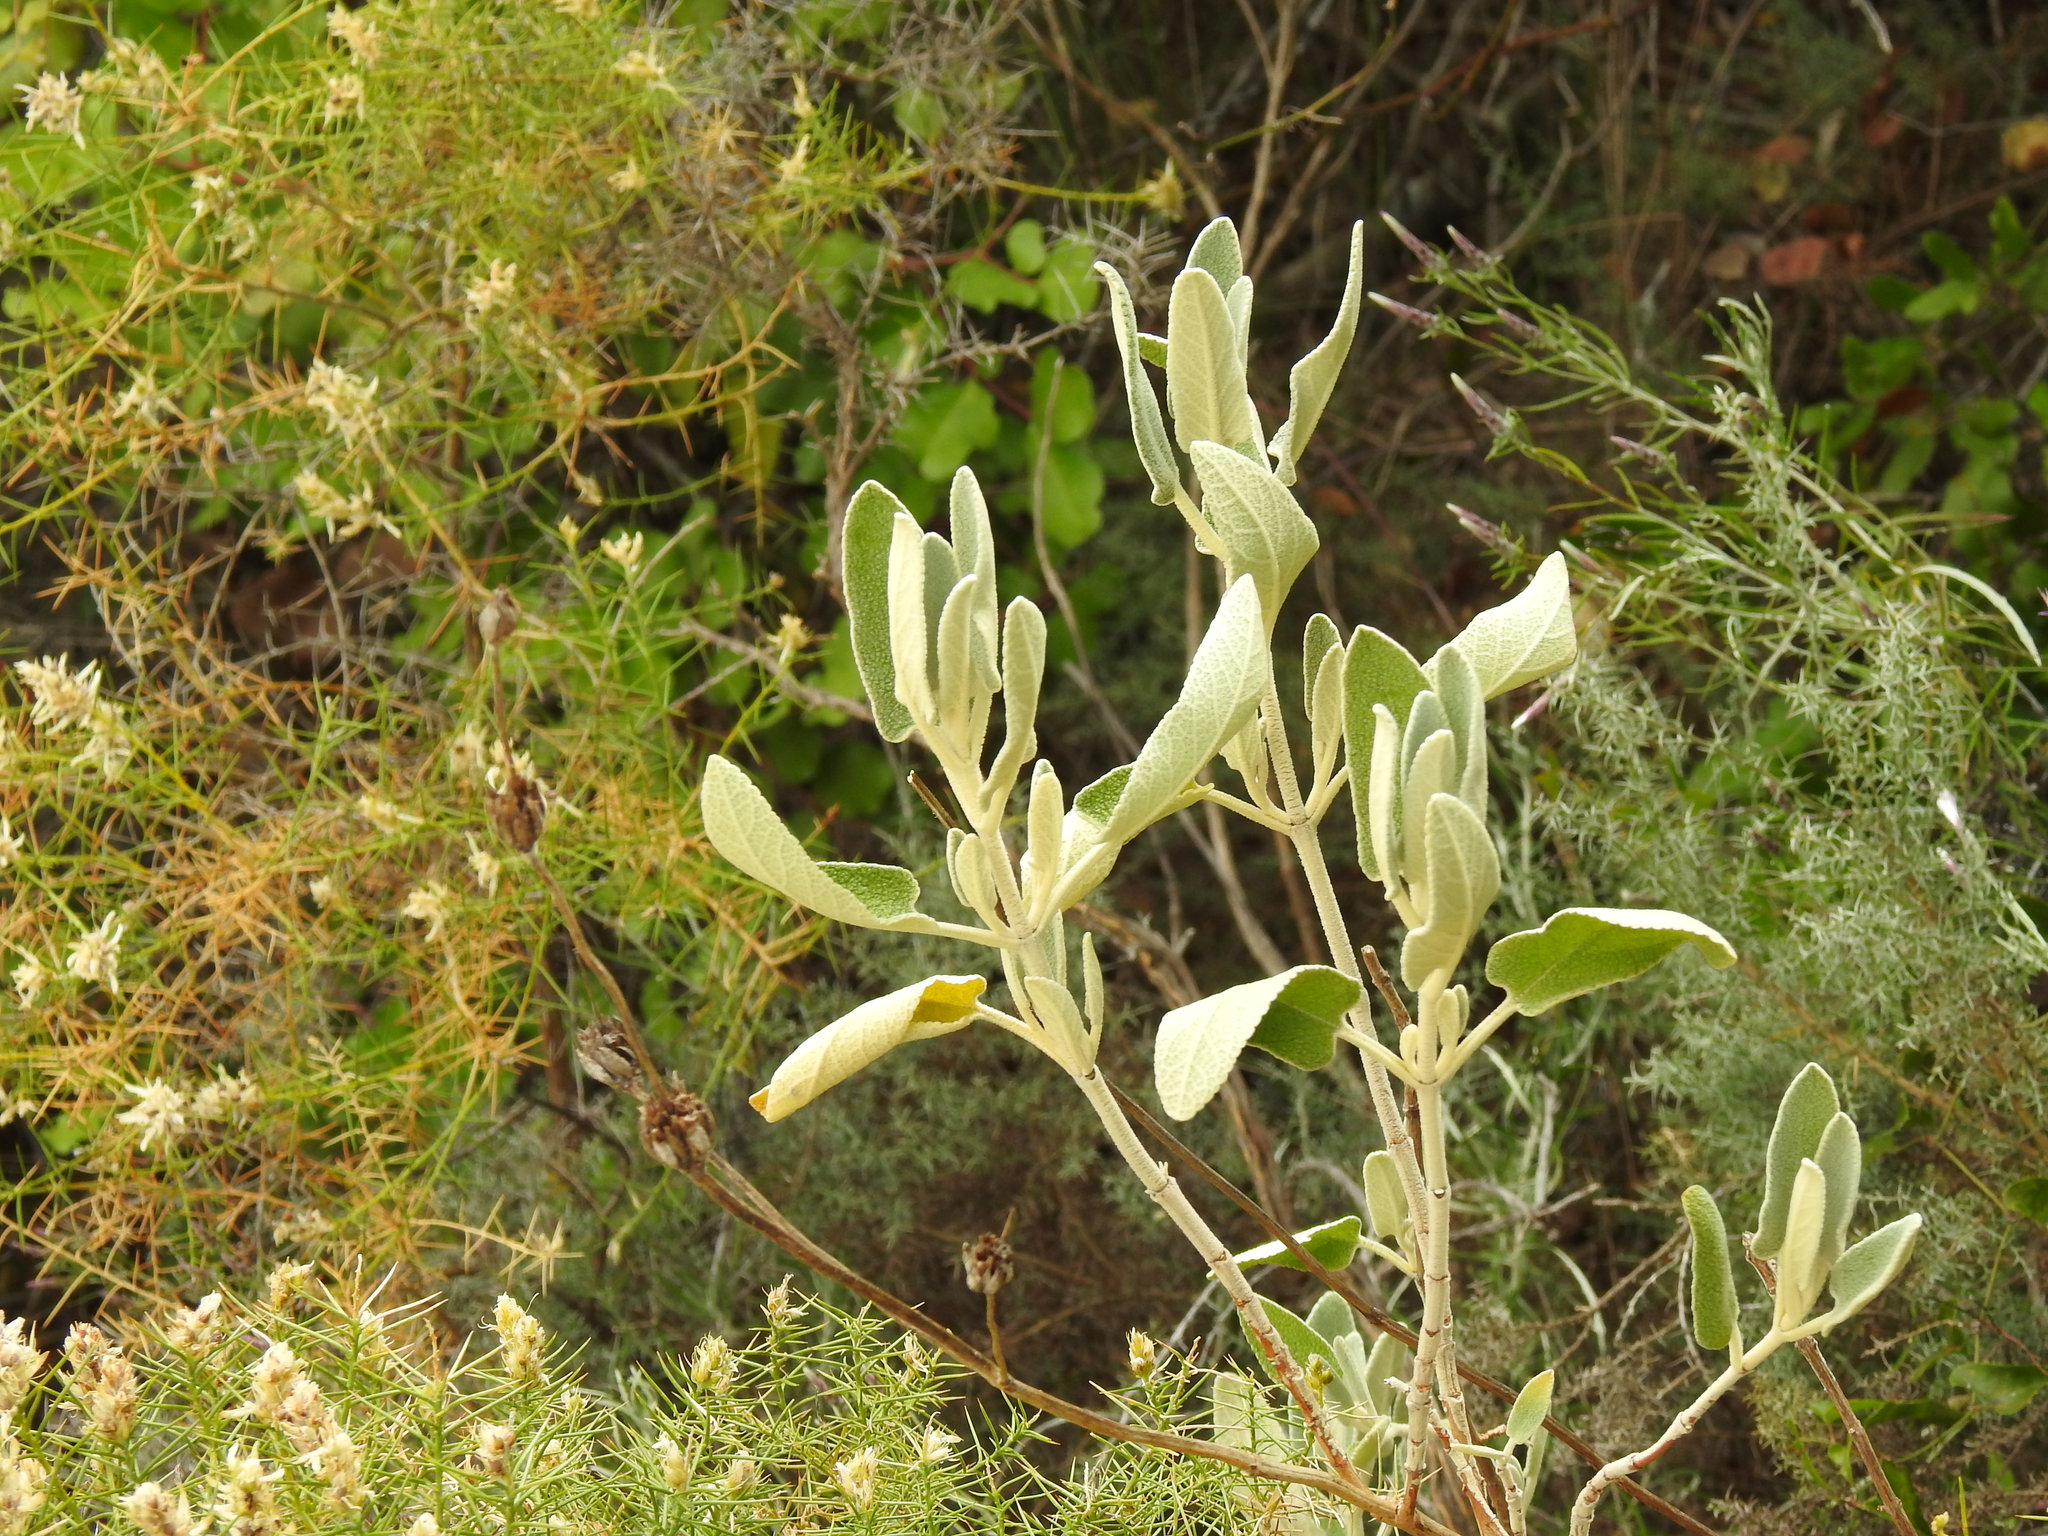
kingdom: Plantae
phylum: Tracheophyta
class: Magnoliopsida
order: Lamiales
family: Lamiaceae
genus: Phlomis
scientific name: Phlomis purpurea
